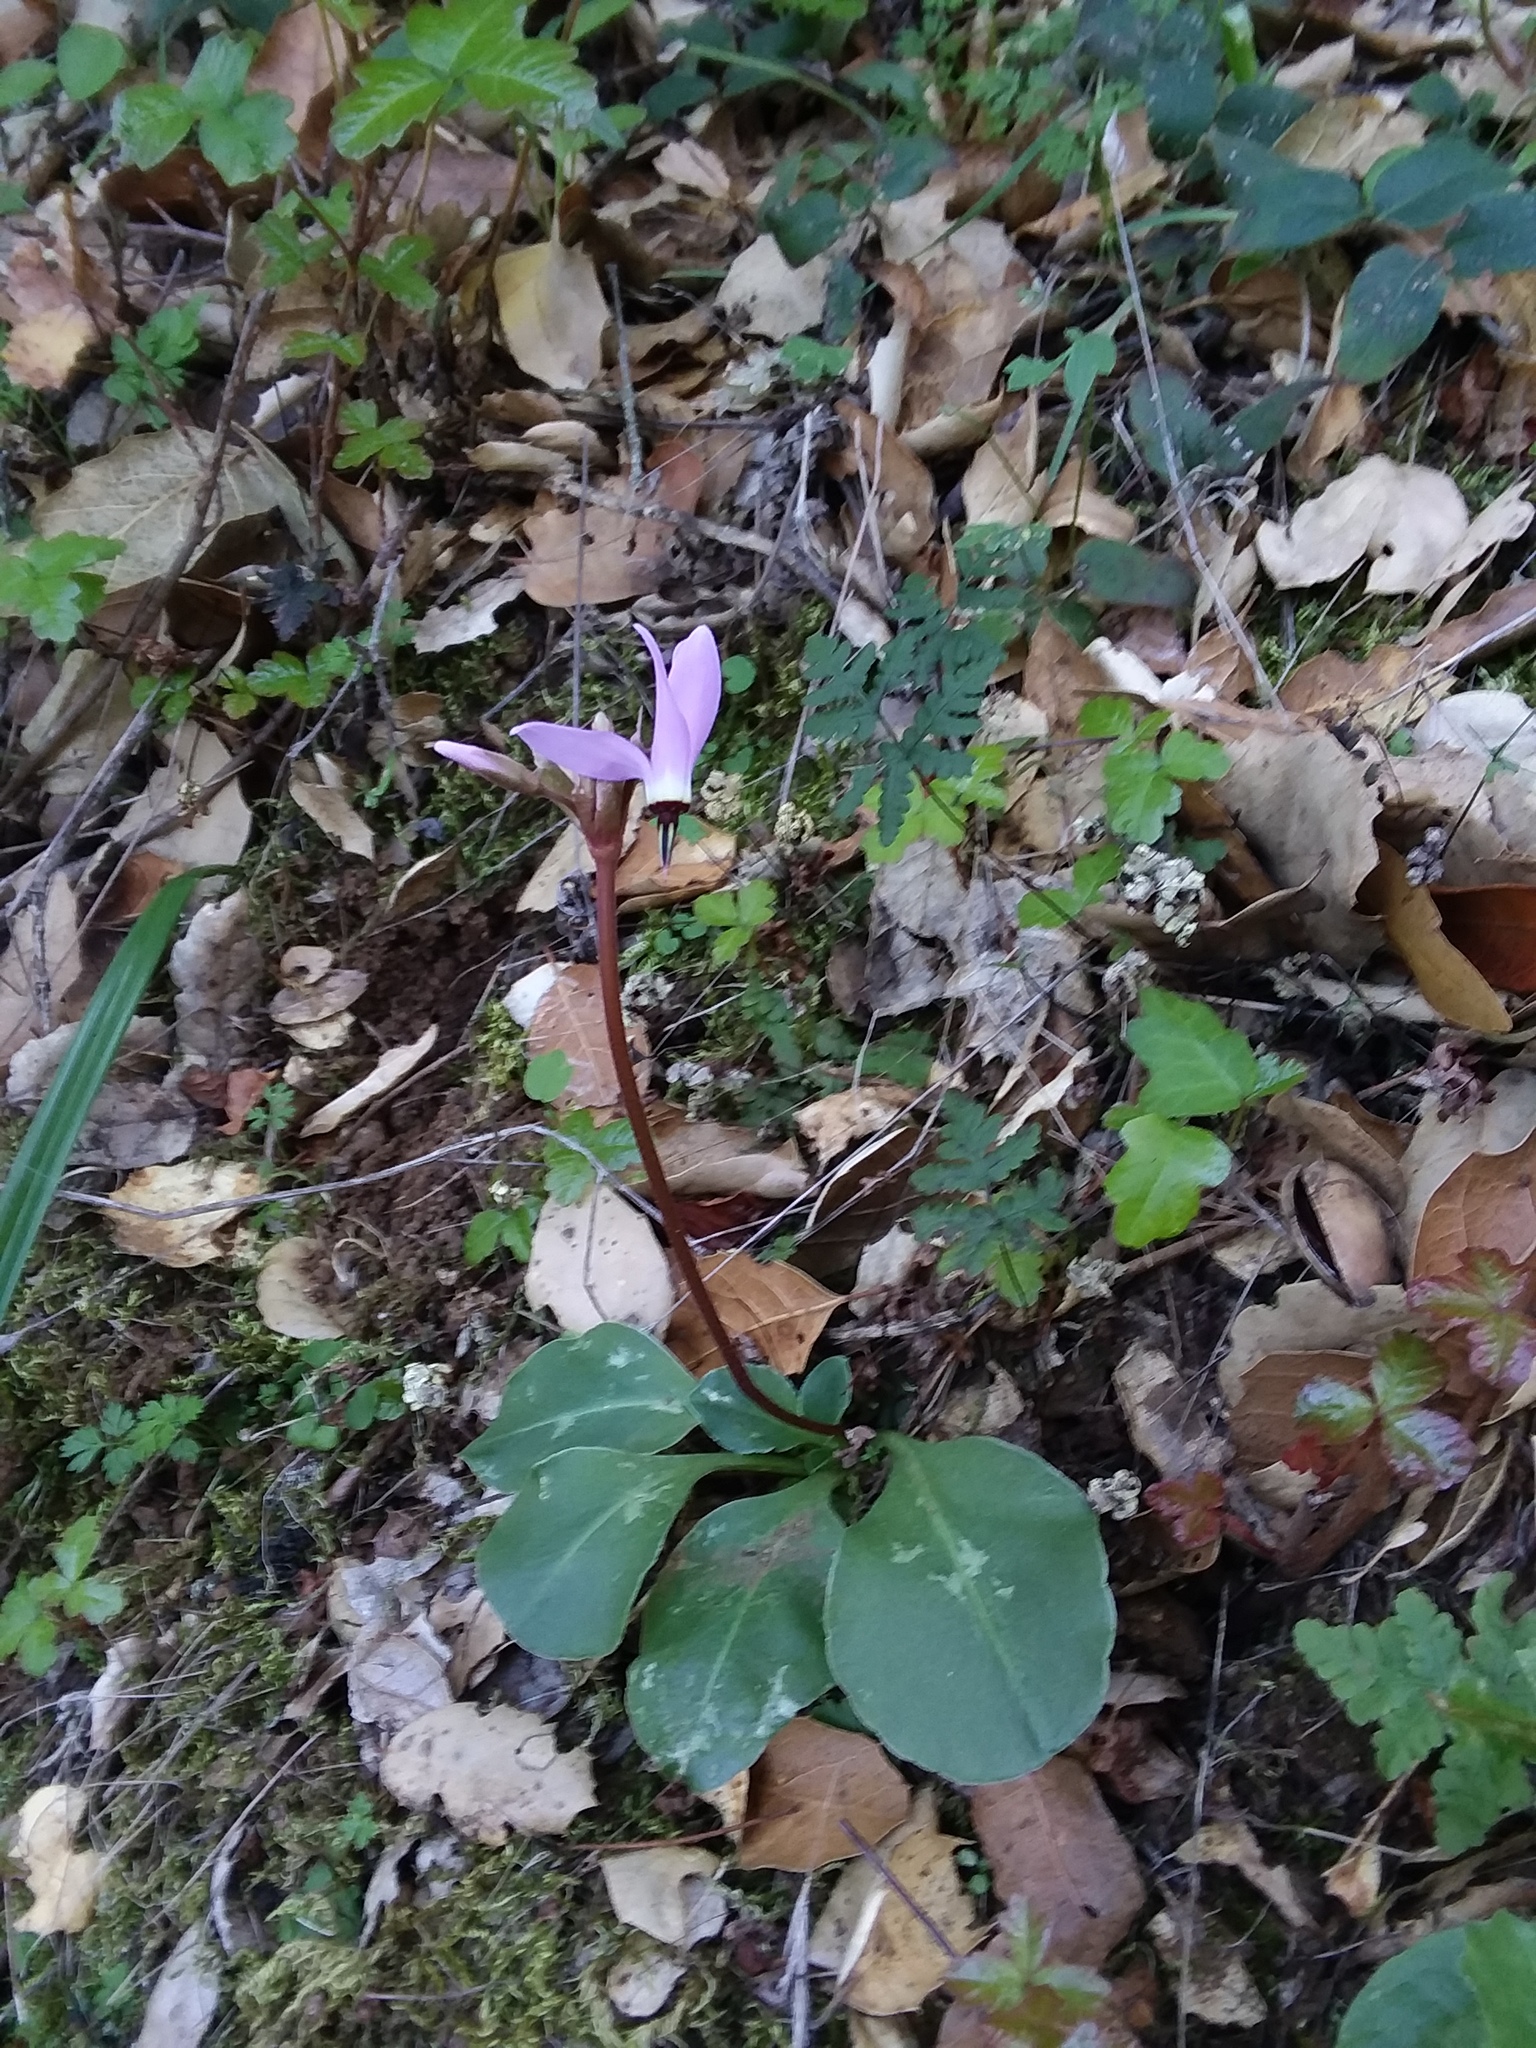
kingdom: Plantae
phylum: Tracheophyta
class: Magnoliopsida
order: Ericales
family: Primulaceae
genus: Dodecatheon
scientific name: Dodecatheon hendersonii
